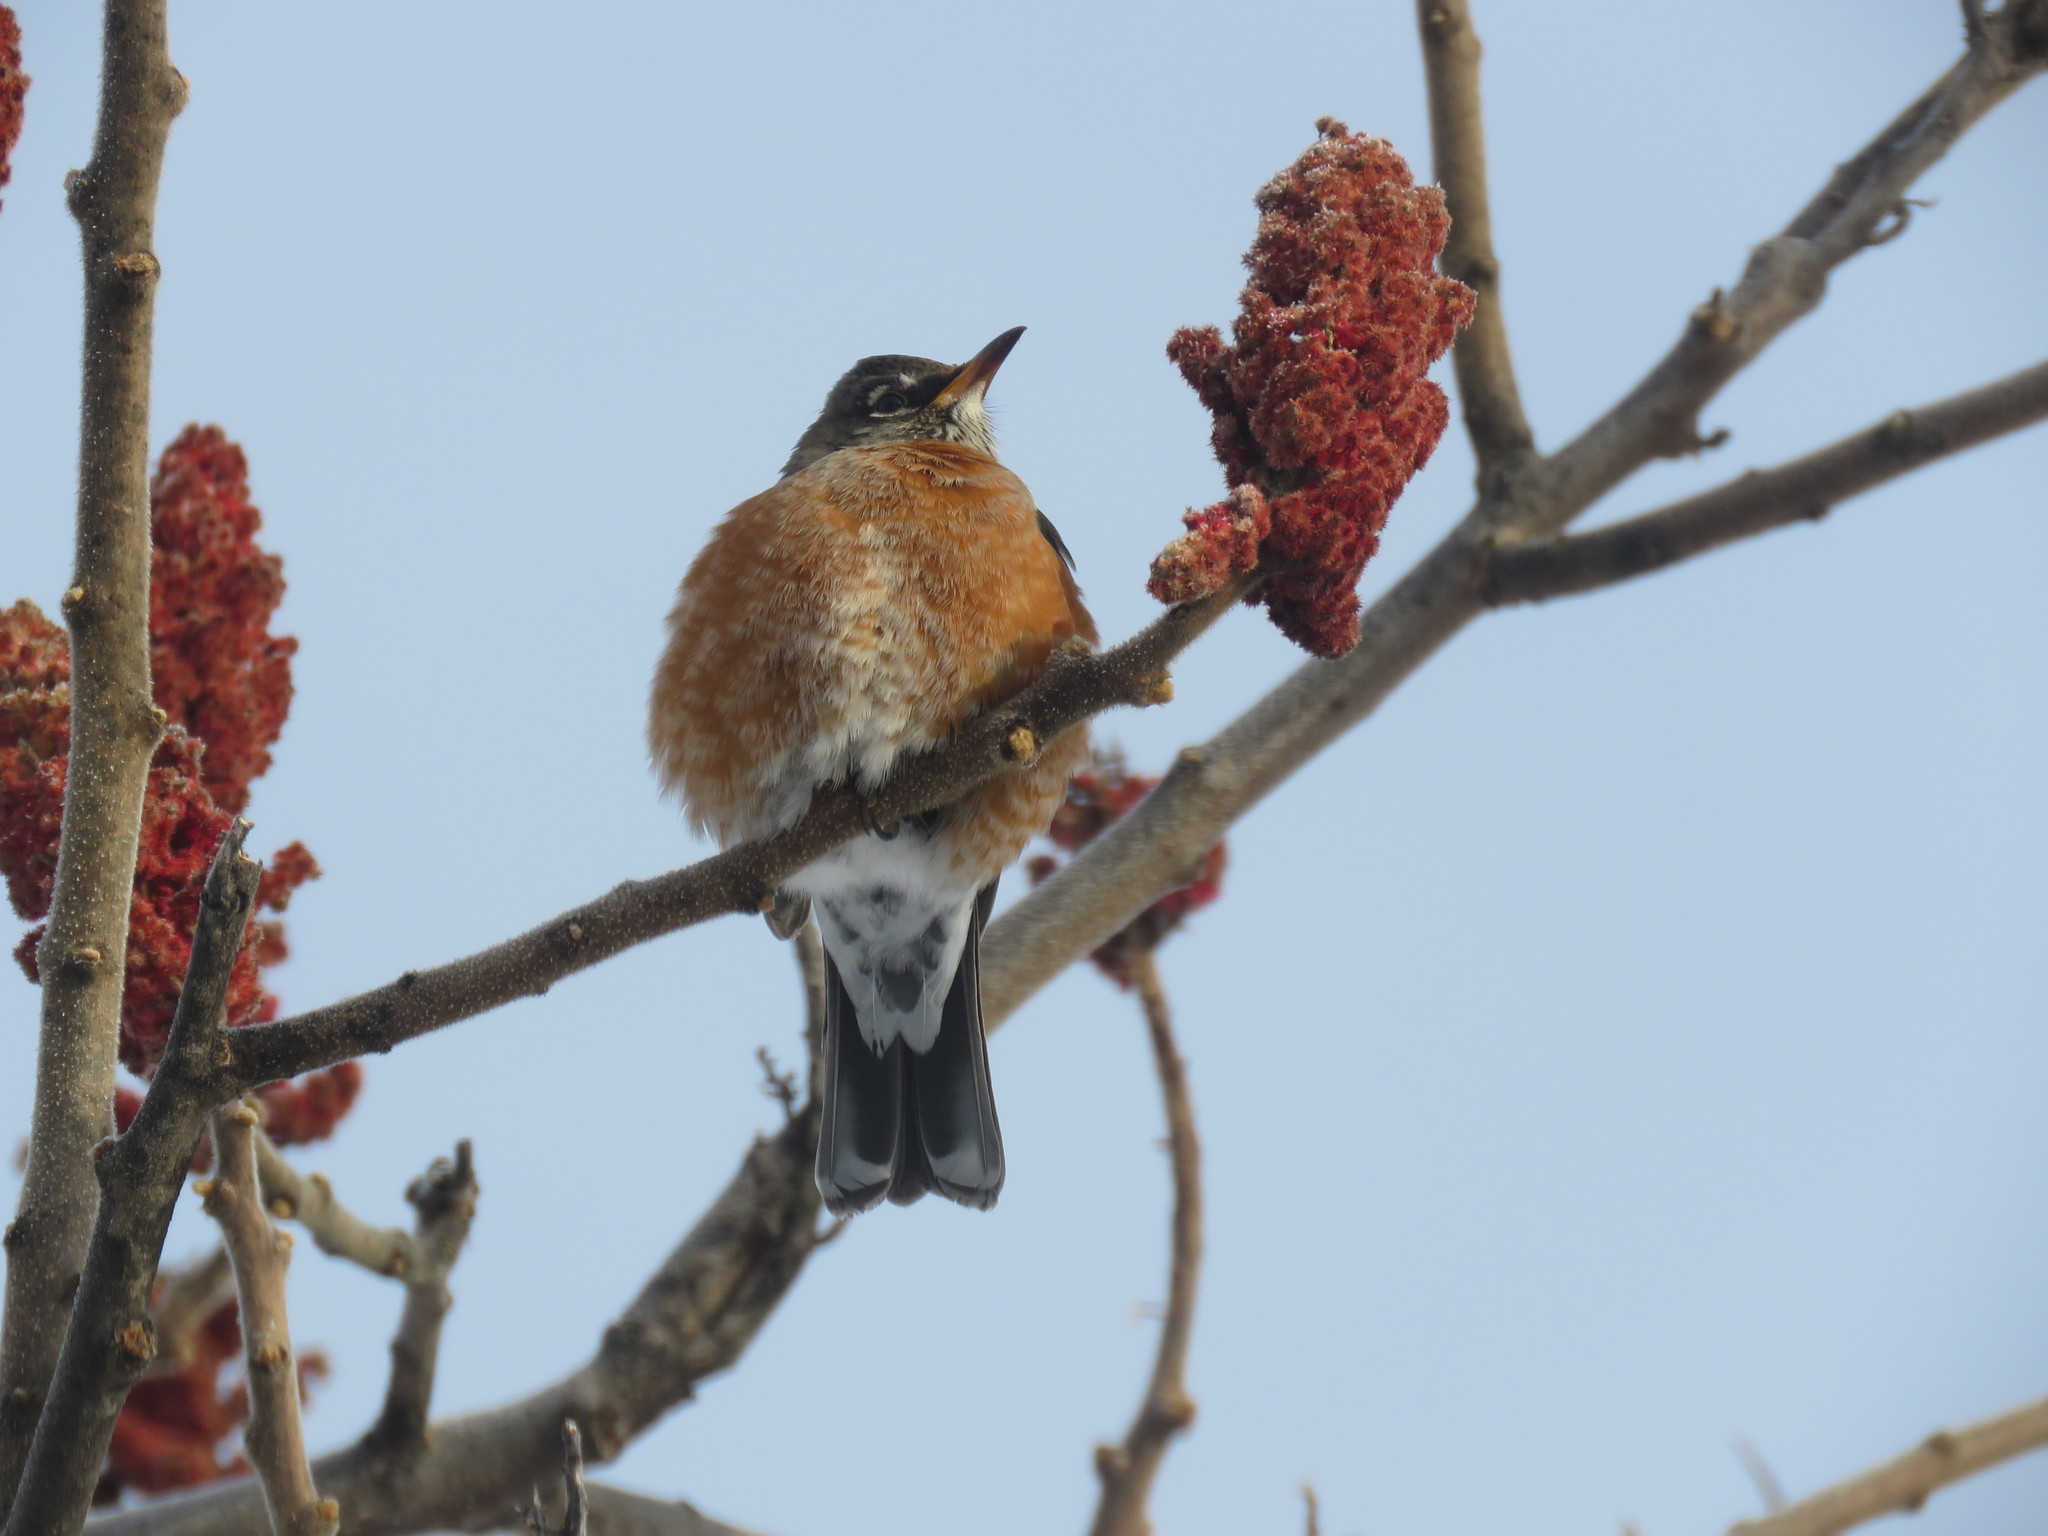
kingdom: Animalia
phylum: Chordata
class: Aves
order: Passeriformes
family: Turdidae
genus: Turdus
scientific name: Turdus migratorius
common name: American robin
